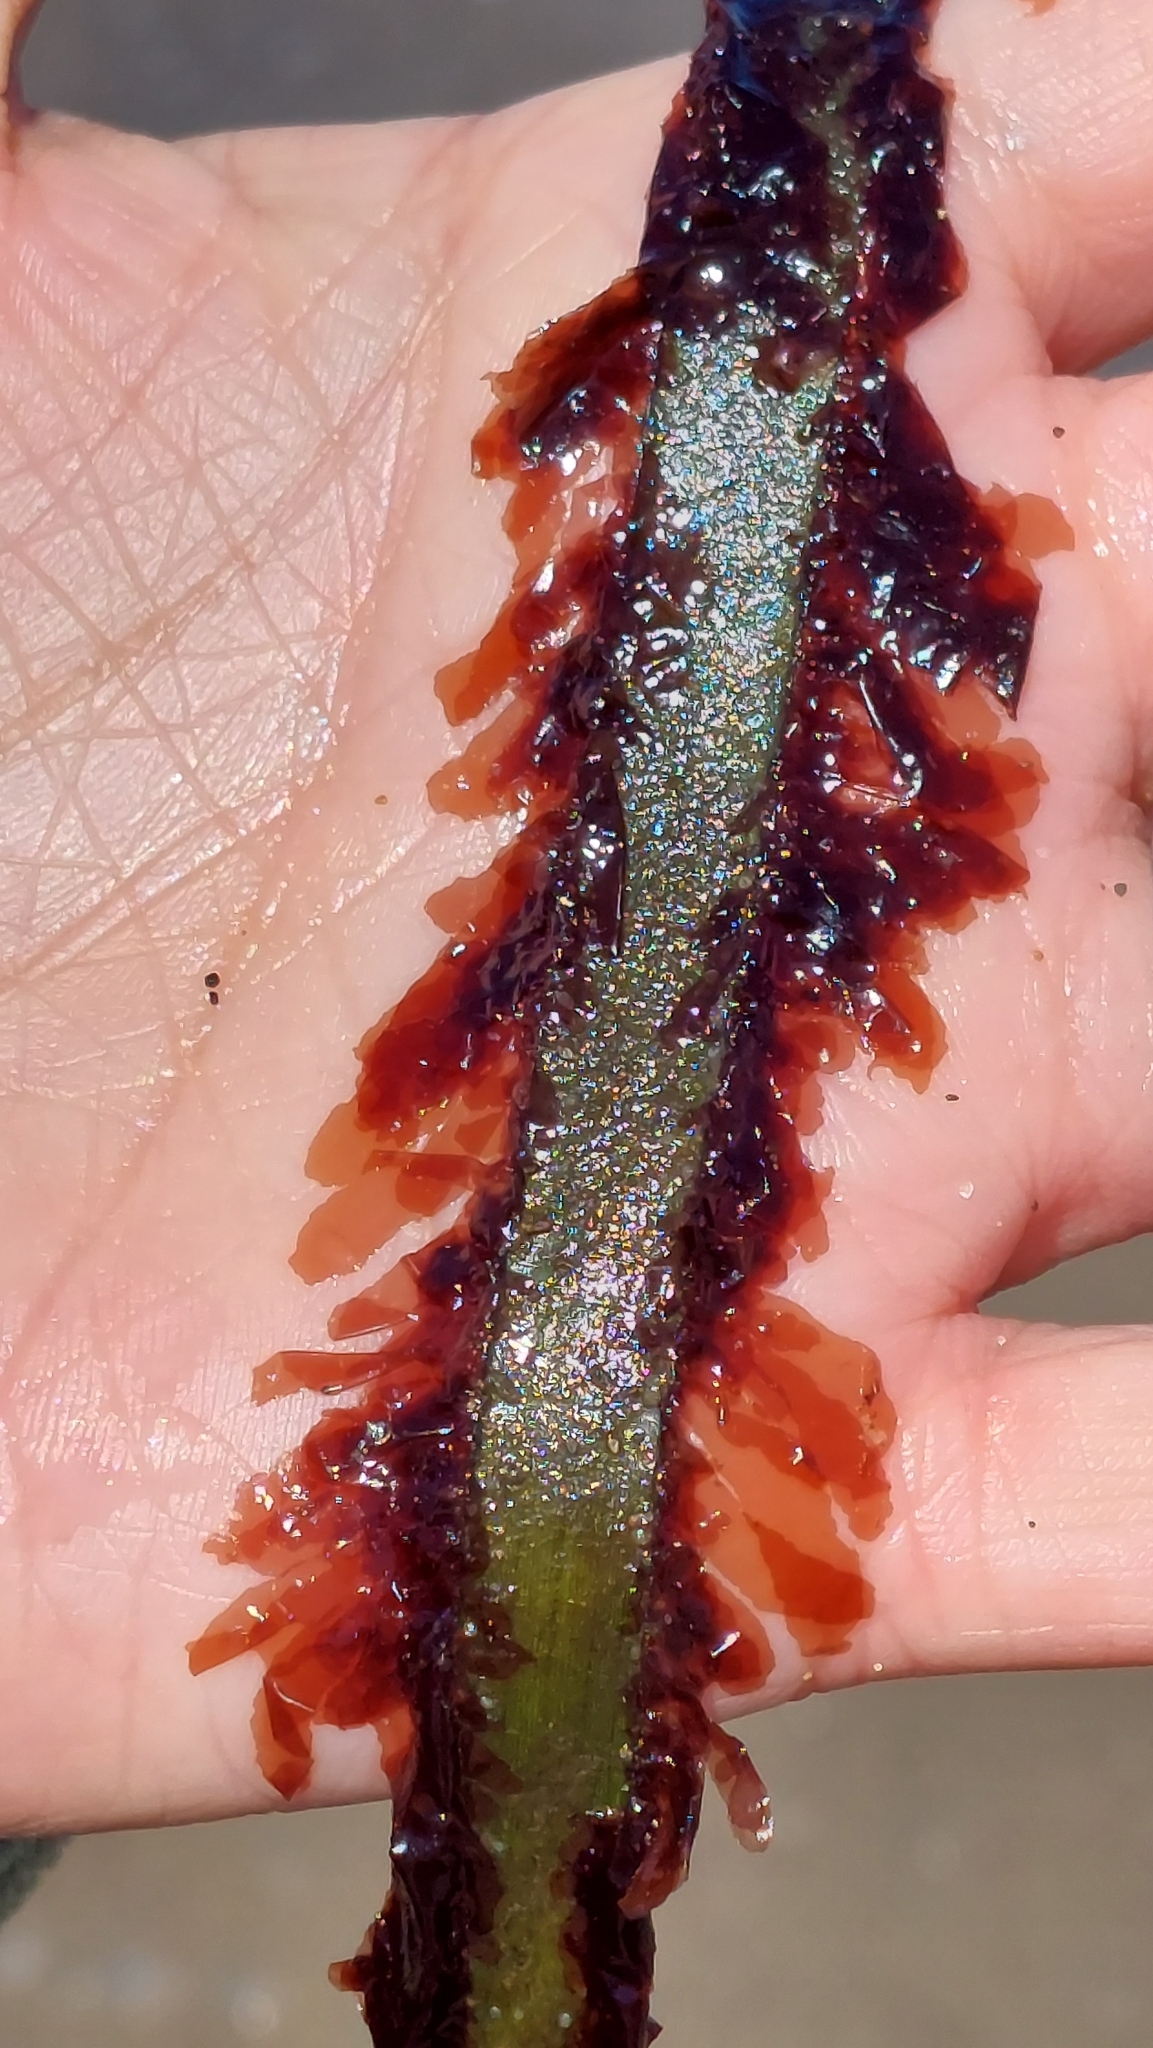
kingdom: Plantae
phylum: Rhodophyta
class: Compsopogonophyceae
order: Erythropeltidales
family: Erythrotrichiaceae
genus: Smithora
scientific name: Smithora naiadum
